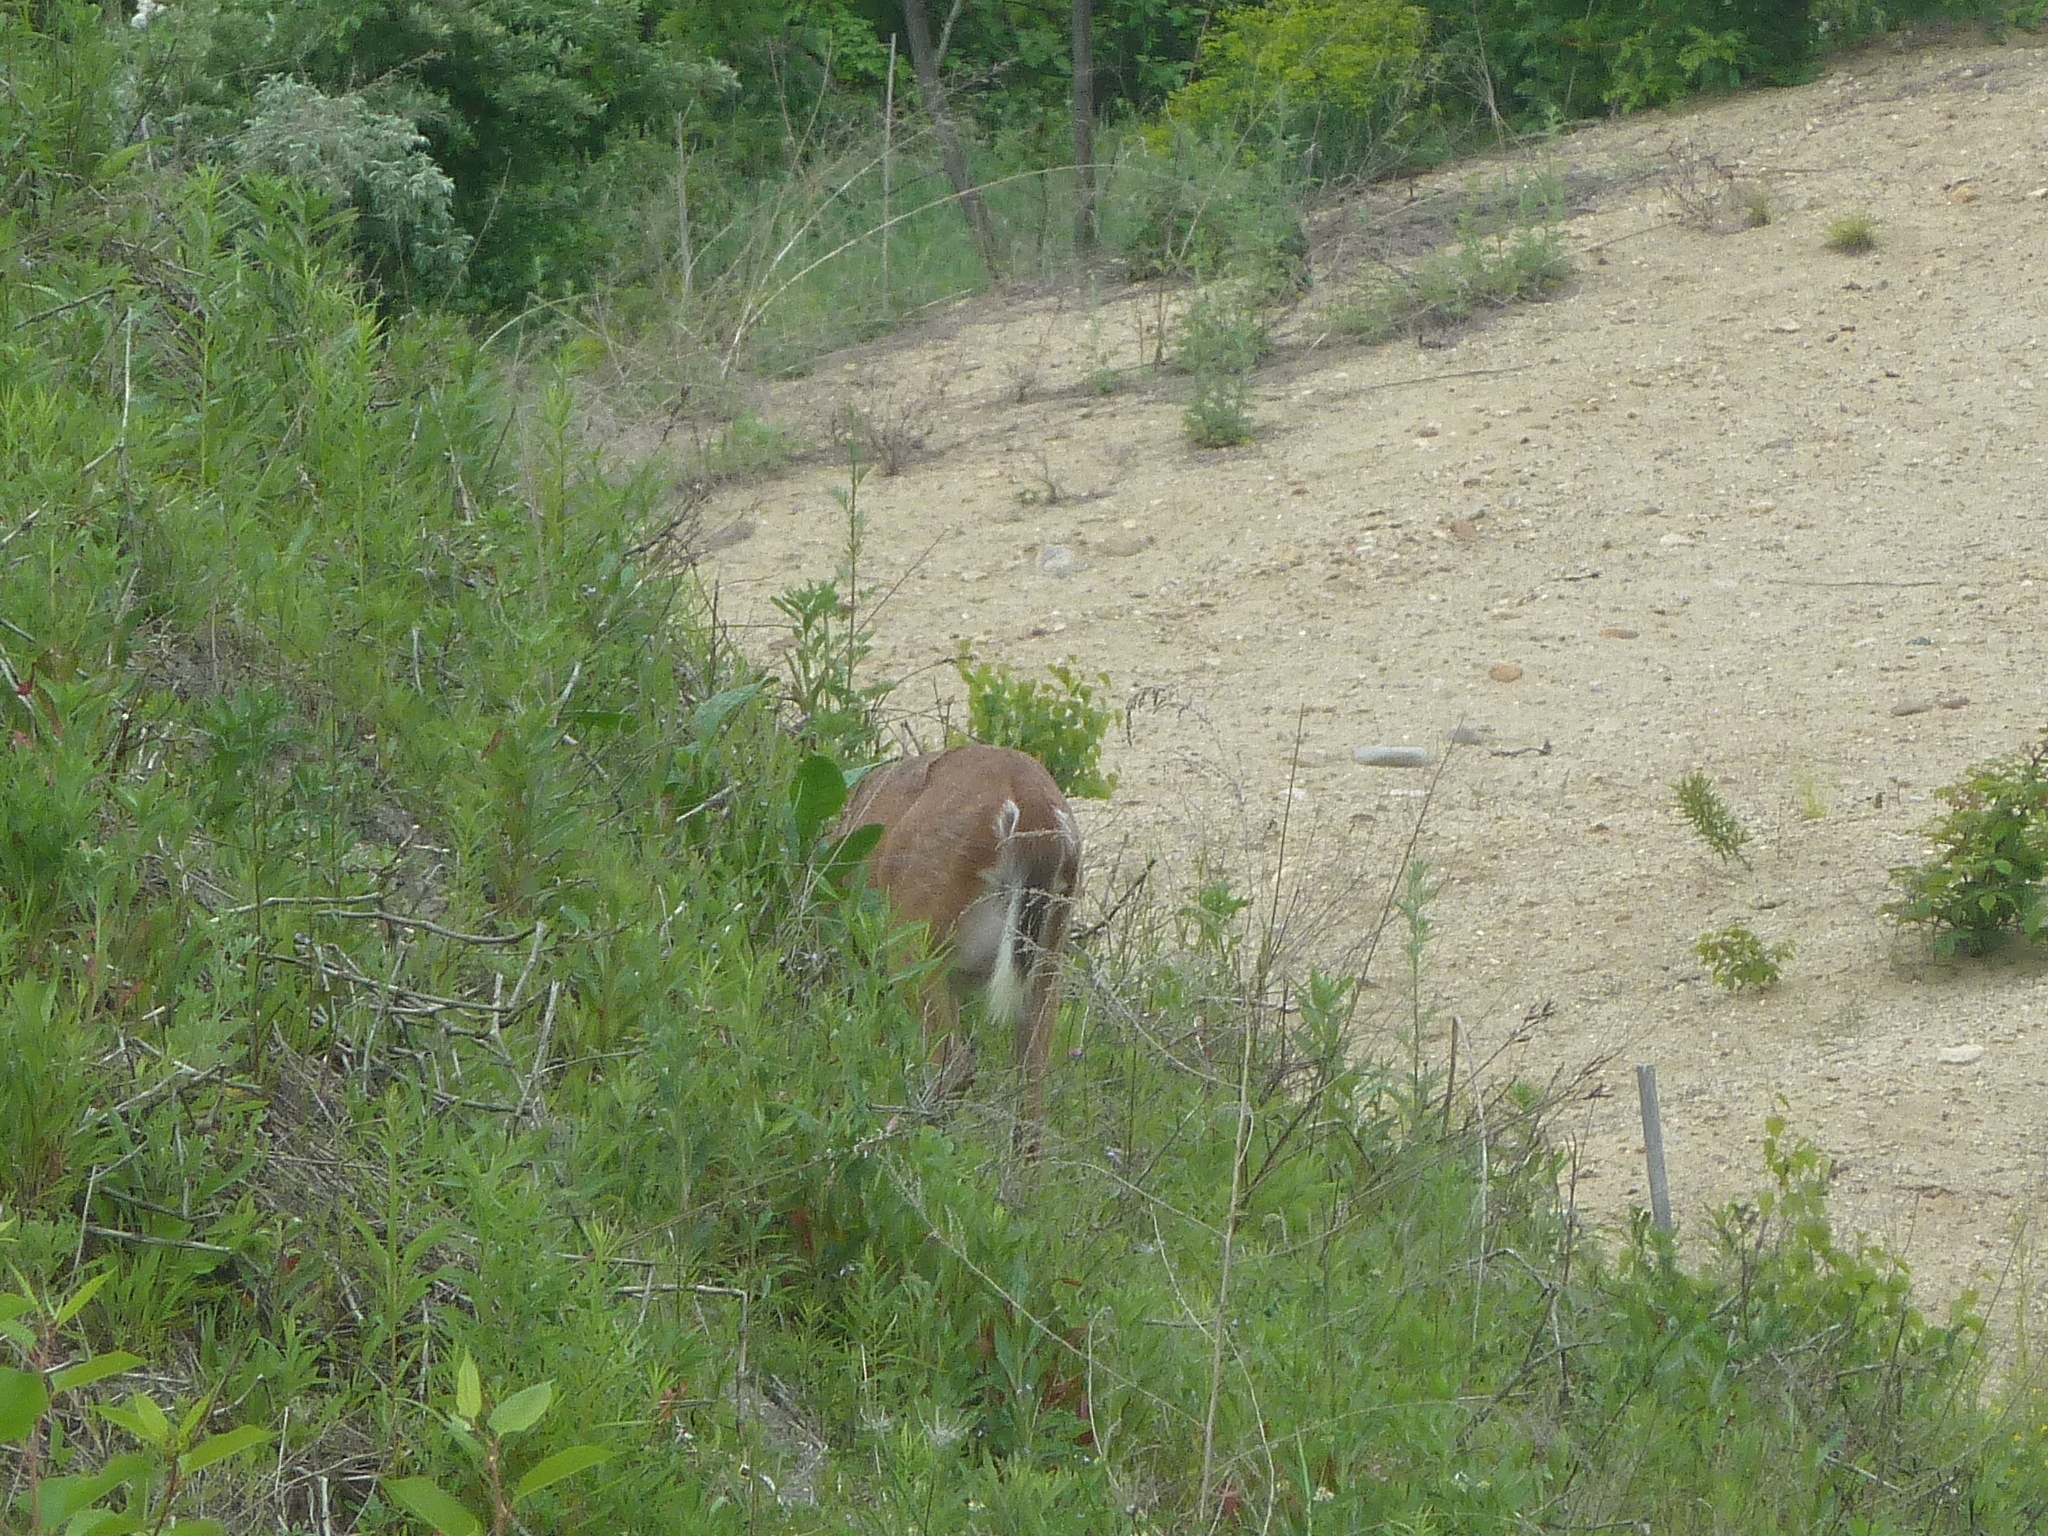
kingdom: Animalia
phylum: Chordata
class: Mammalia
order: Artiodactyla
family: Cervidae
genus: Odocoileus
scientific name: Odocoileus virginianus
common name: White-tailed deer
